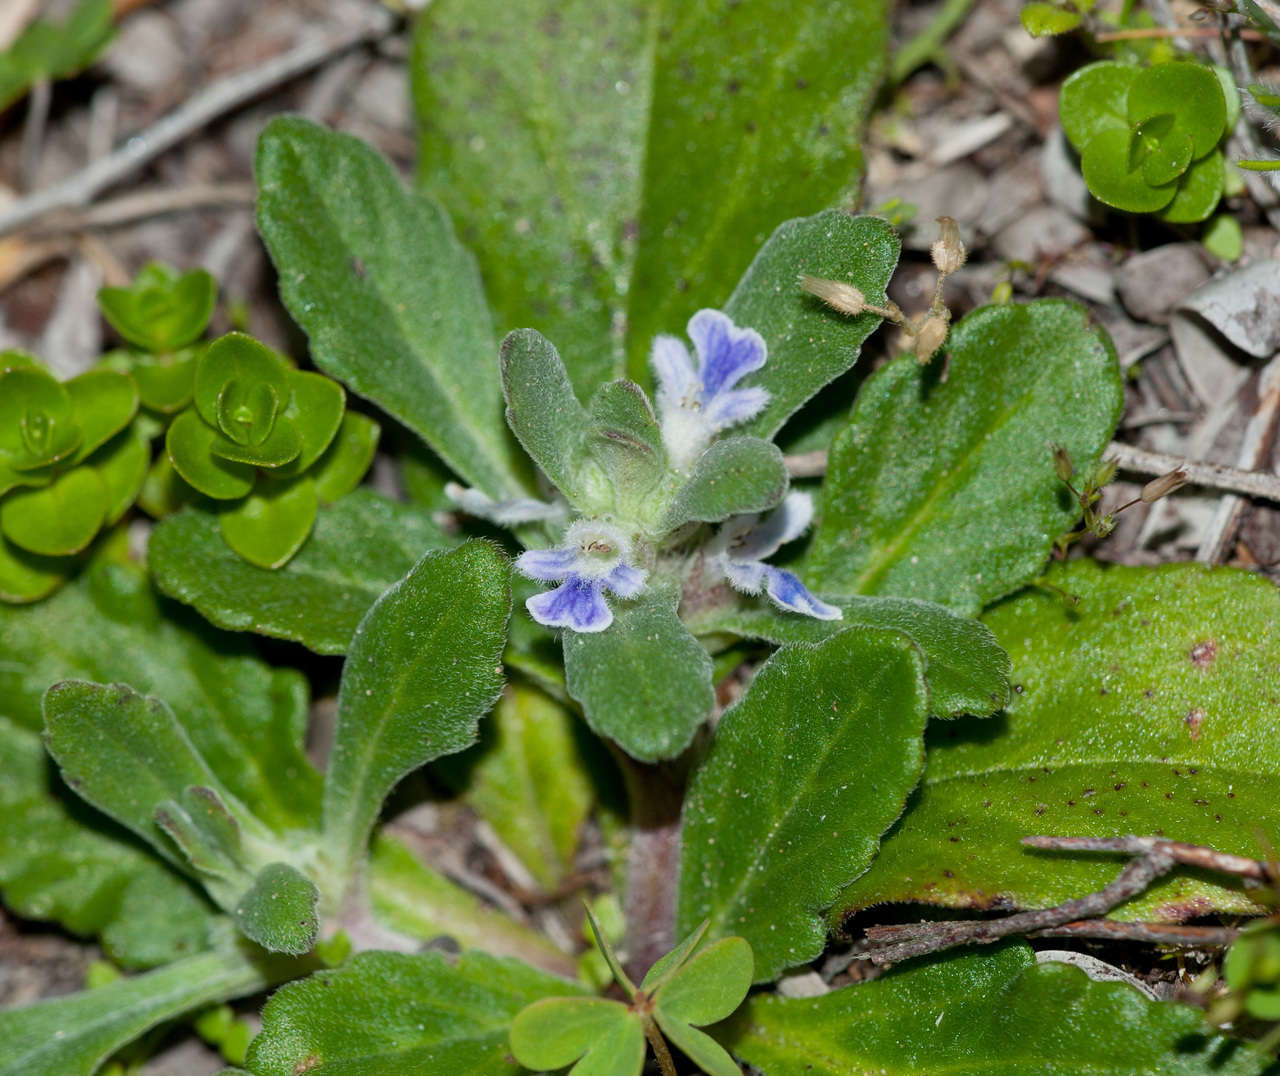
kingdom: Plantae
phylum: Tracheophyta
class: Magnoliopsida
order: Lamiales
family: Lamiaceae
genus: Ajuga
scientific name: Ajuga australis
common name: Australian bugle
